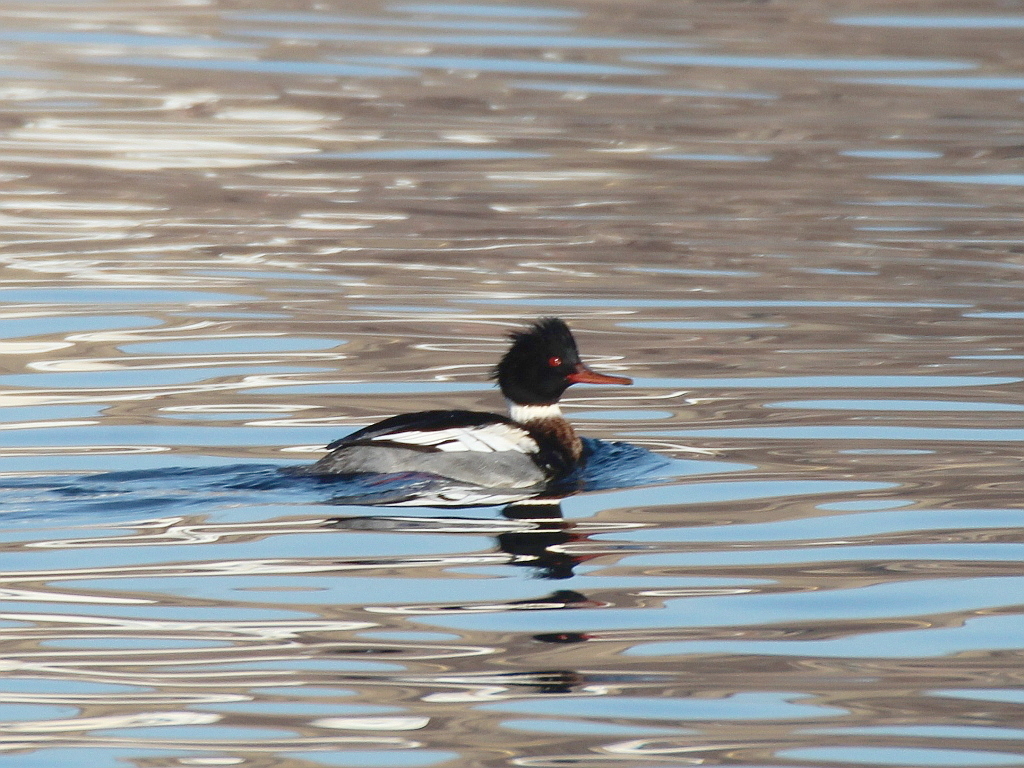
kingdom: Animalia
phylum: Chordata
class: Aves
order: Anseriformes
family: Anatidae
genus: Mergus
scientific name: Mergus serrator
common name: Red-breasted merganser
